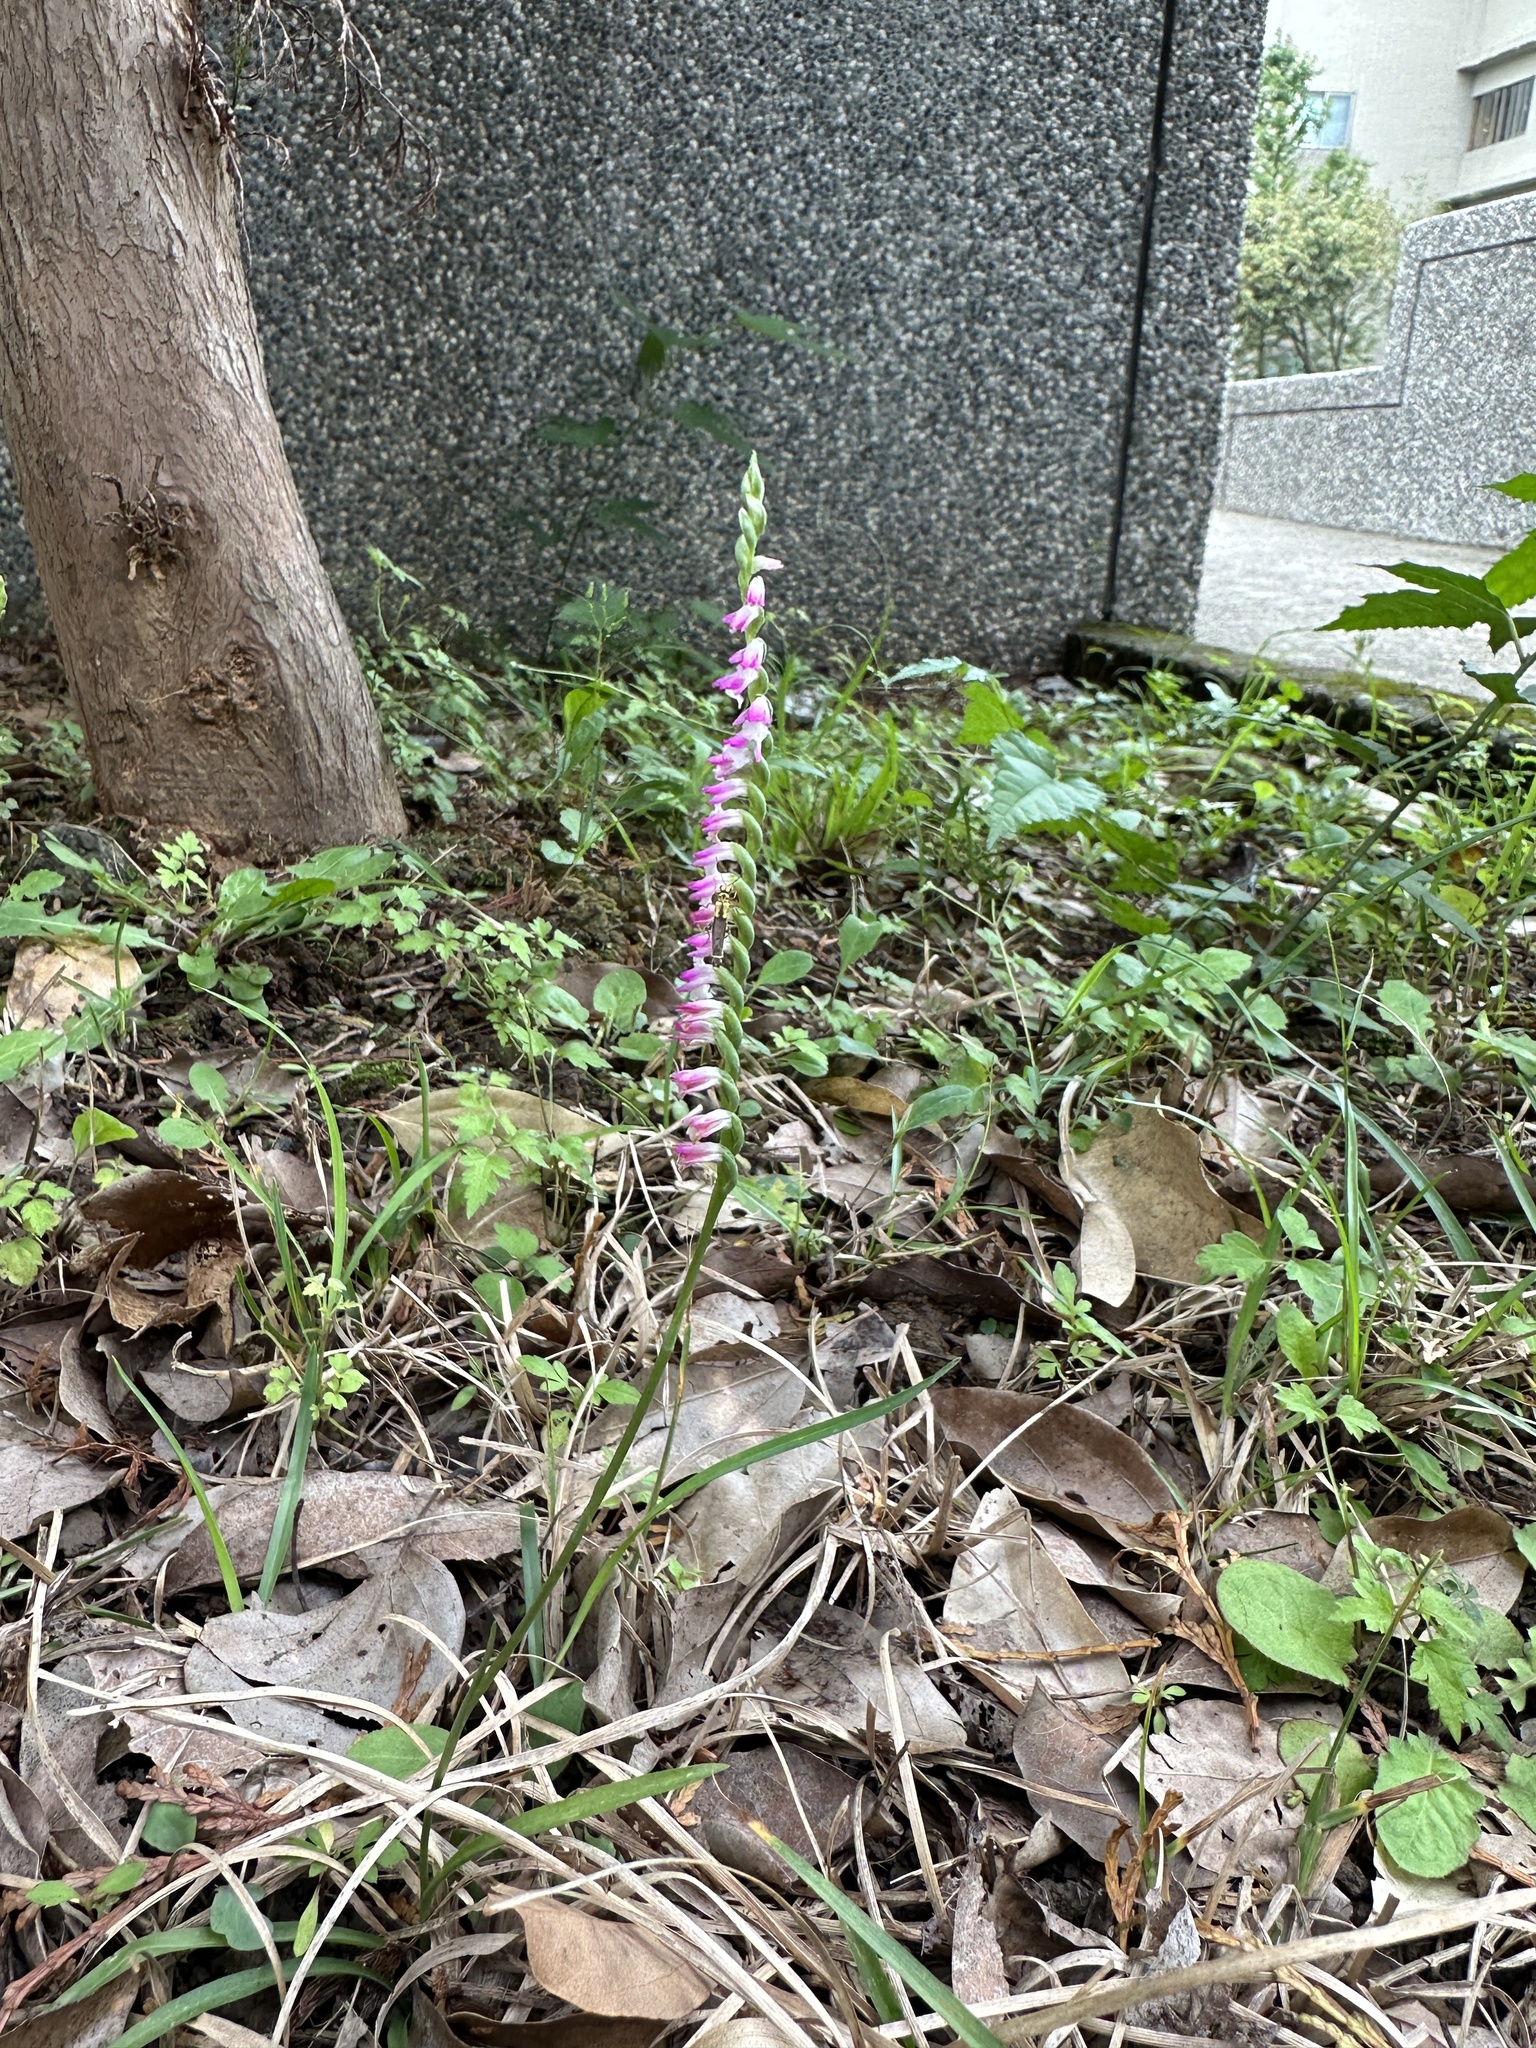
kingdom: Plantae
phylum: Tracheophyta
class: Liliopsida
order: Asparagales
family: Orchidaceae
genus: Spiranthes
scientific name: Spiranthes sinensis
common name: Chinese spiranthes
